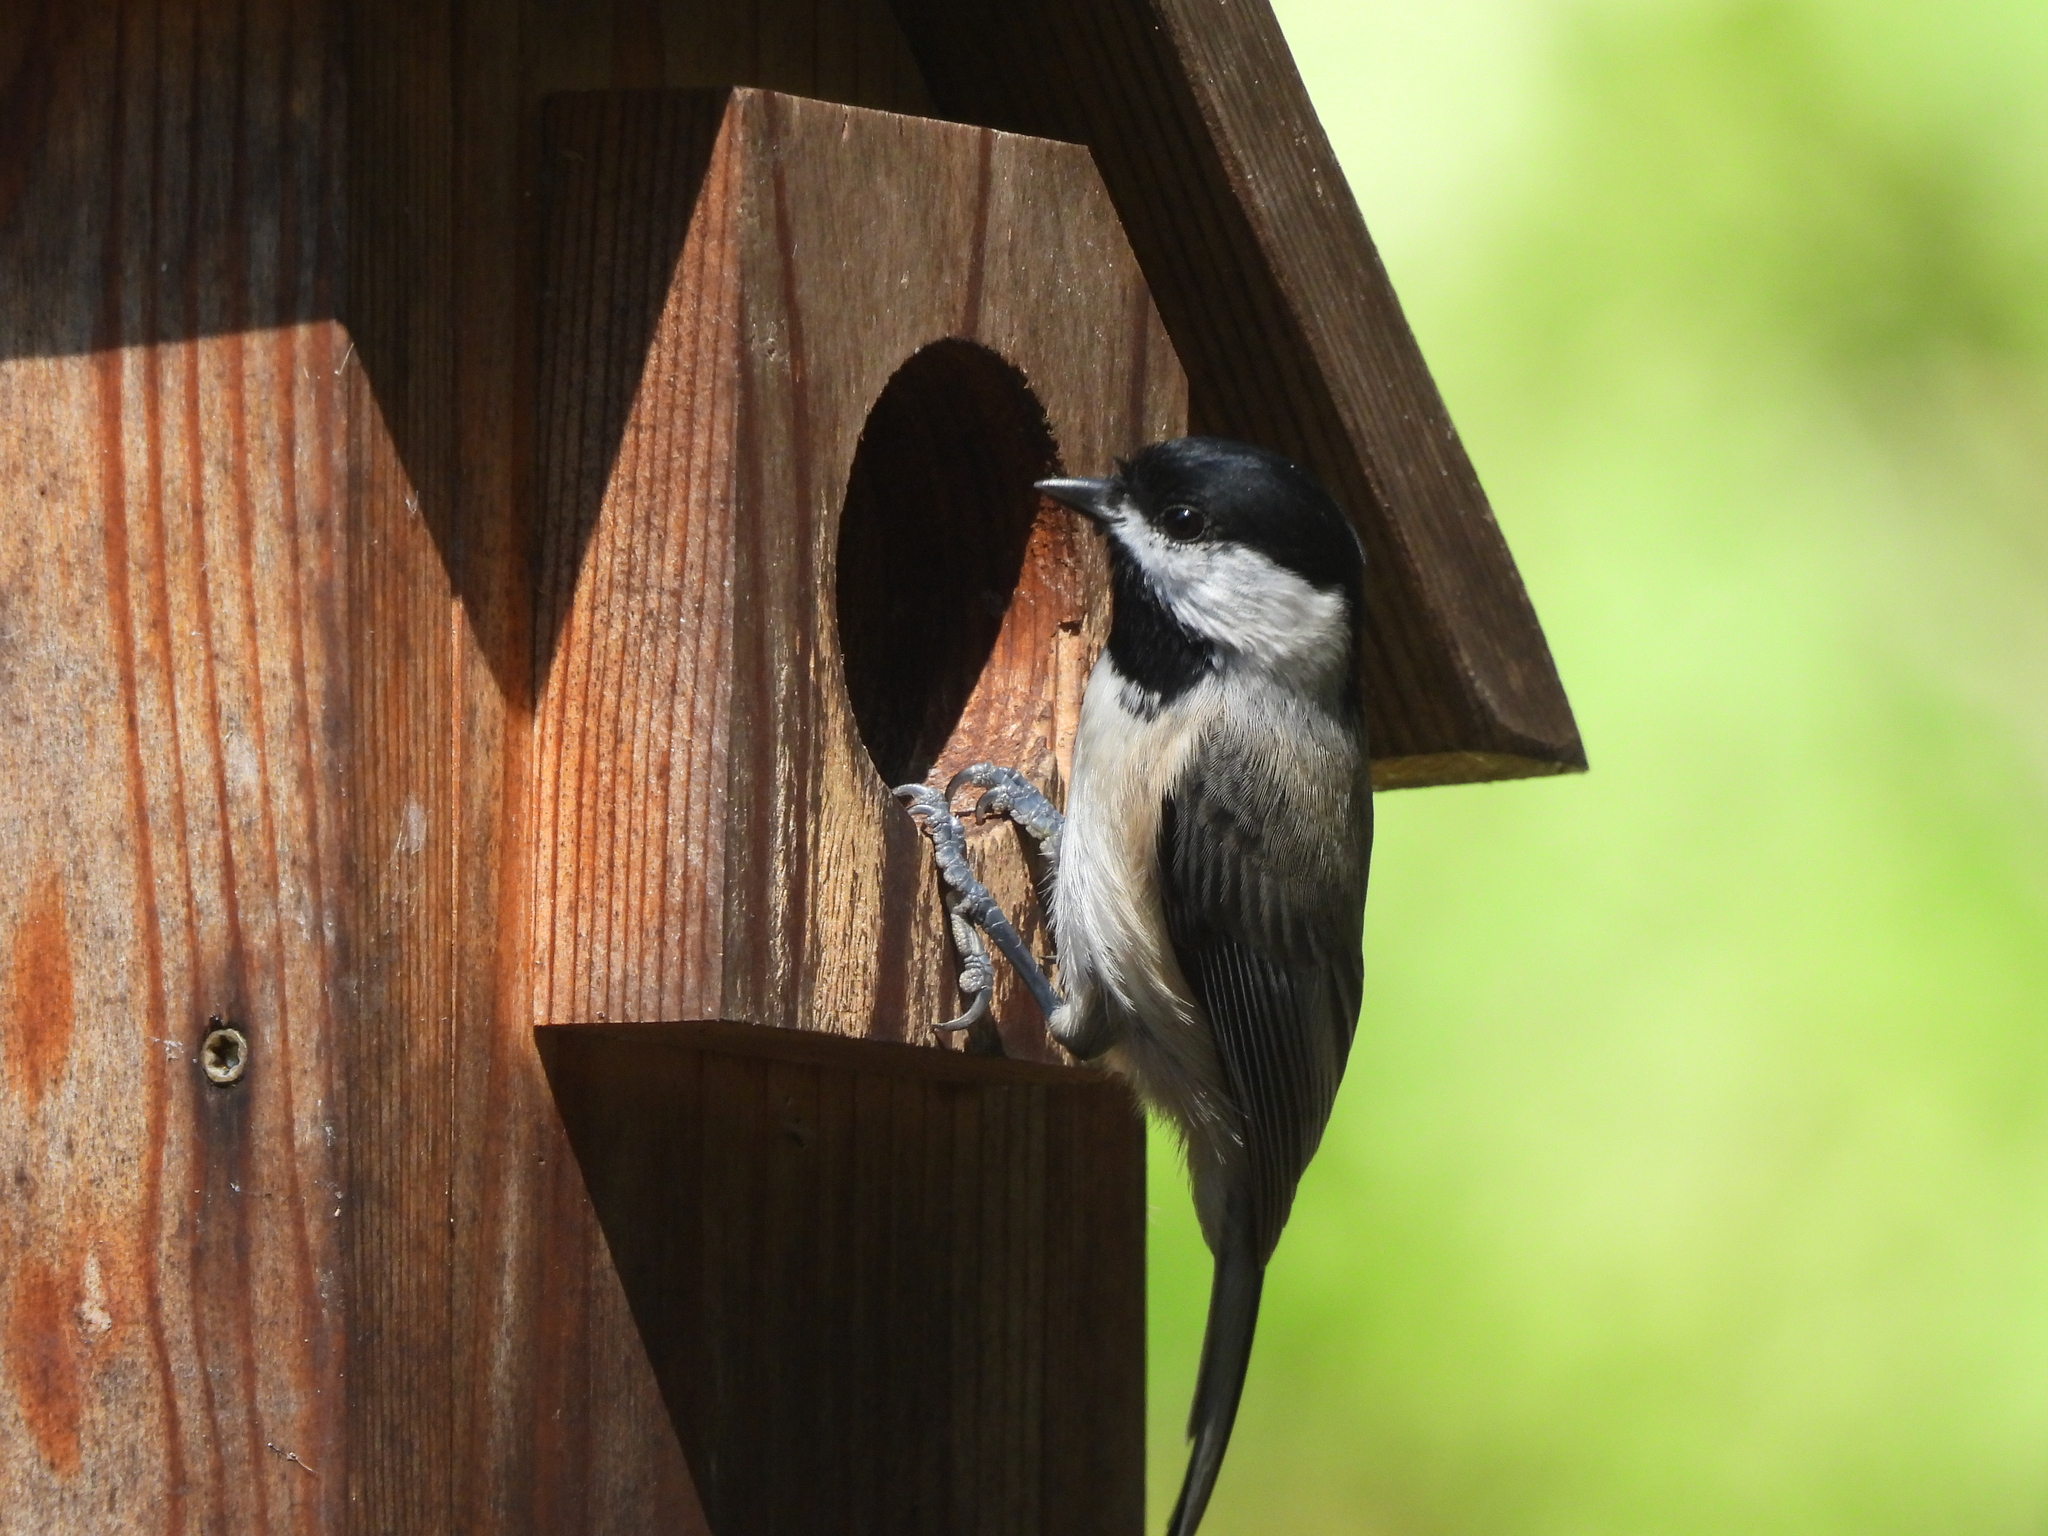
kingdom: Animalia
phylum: Chordata
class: Aves
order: Passeriformes
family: Paridae
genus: Poecile
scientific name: Poecile carolinensis
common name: Carolina chickadee
